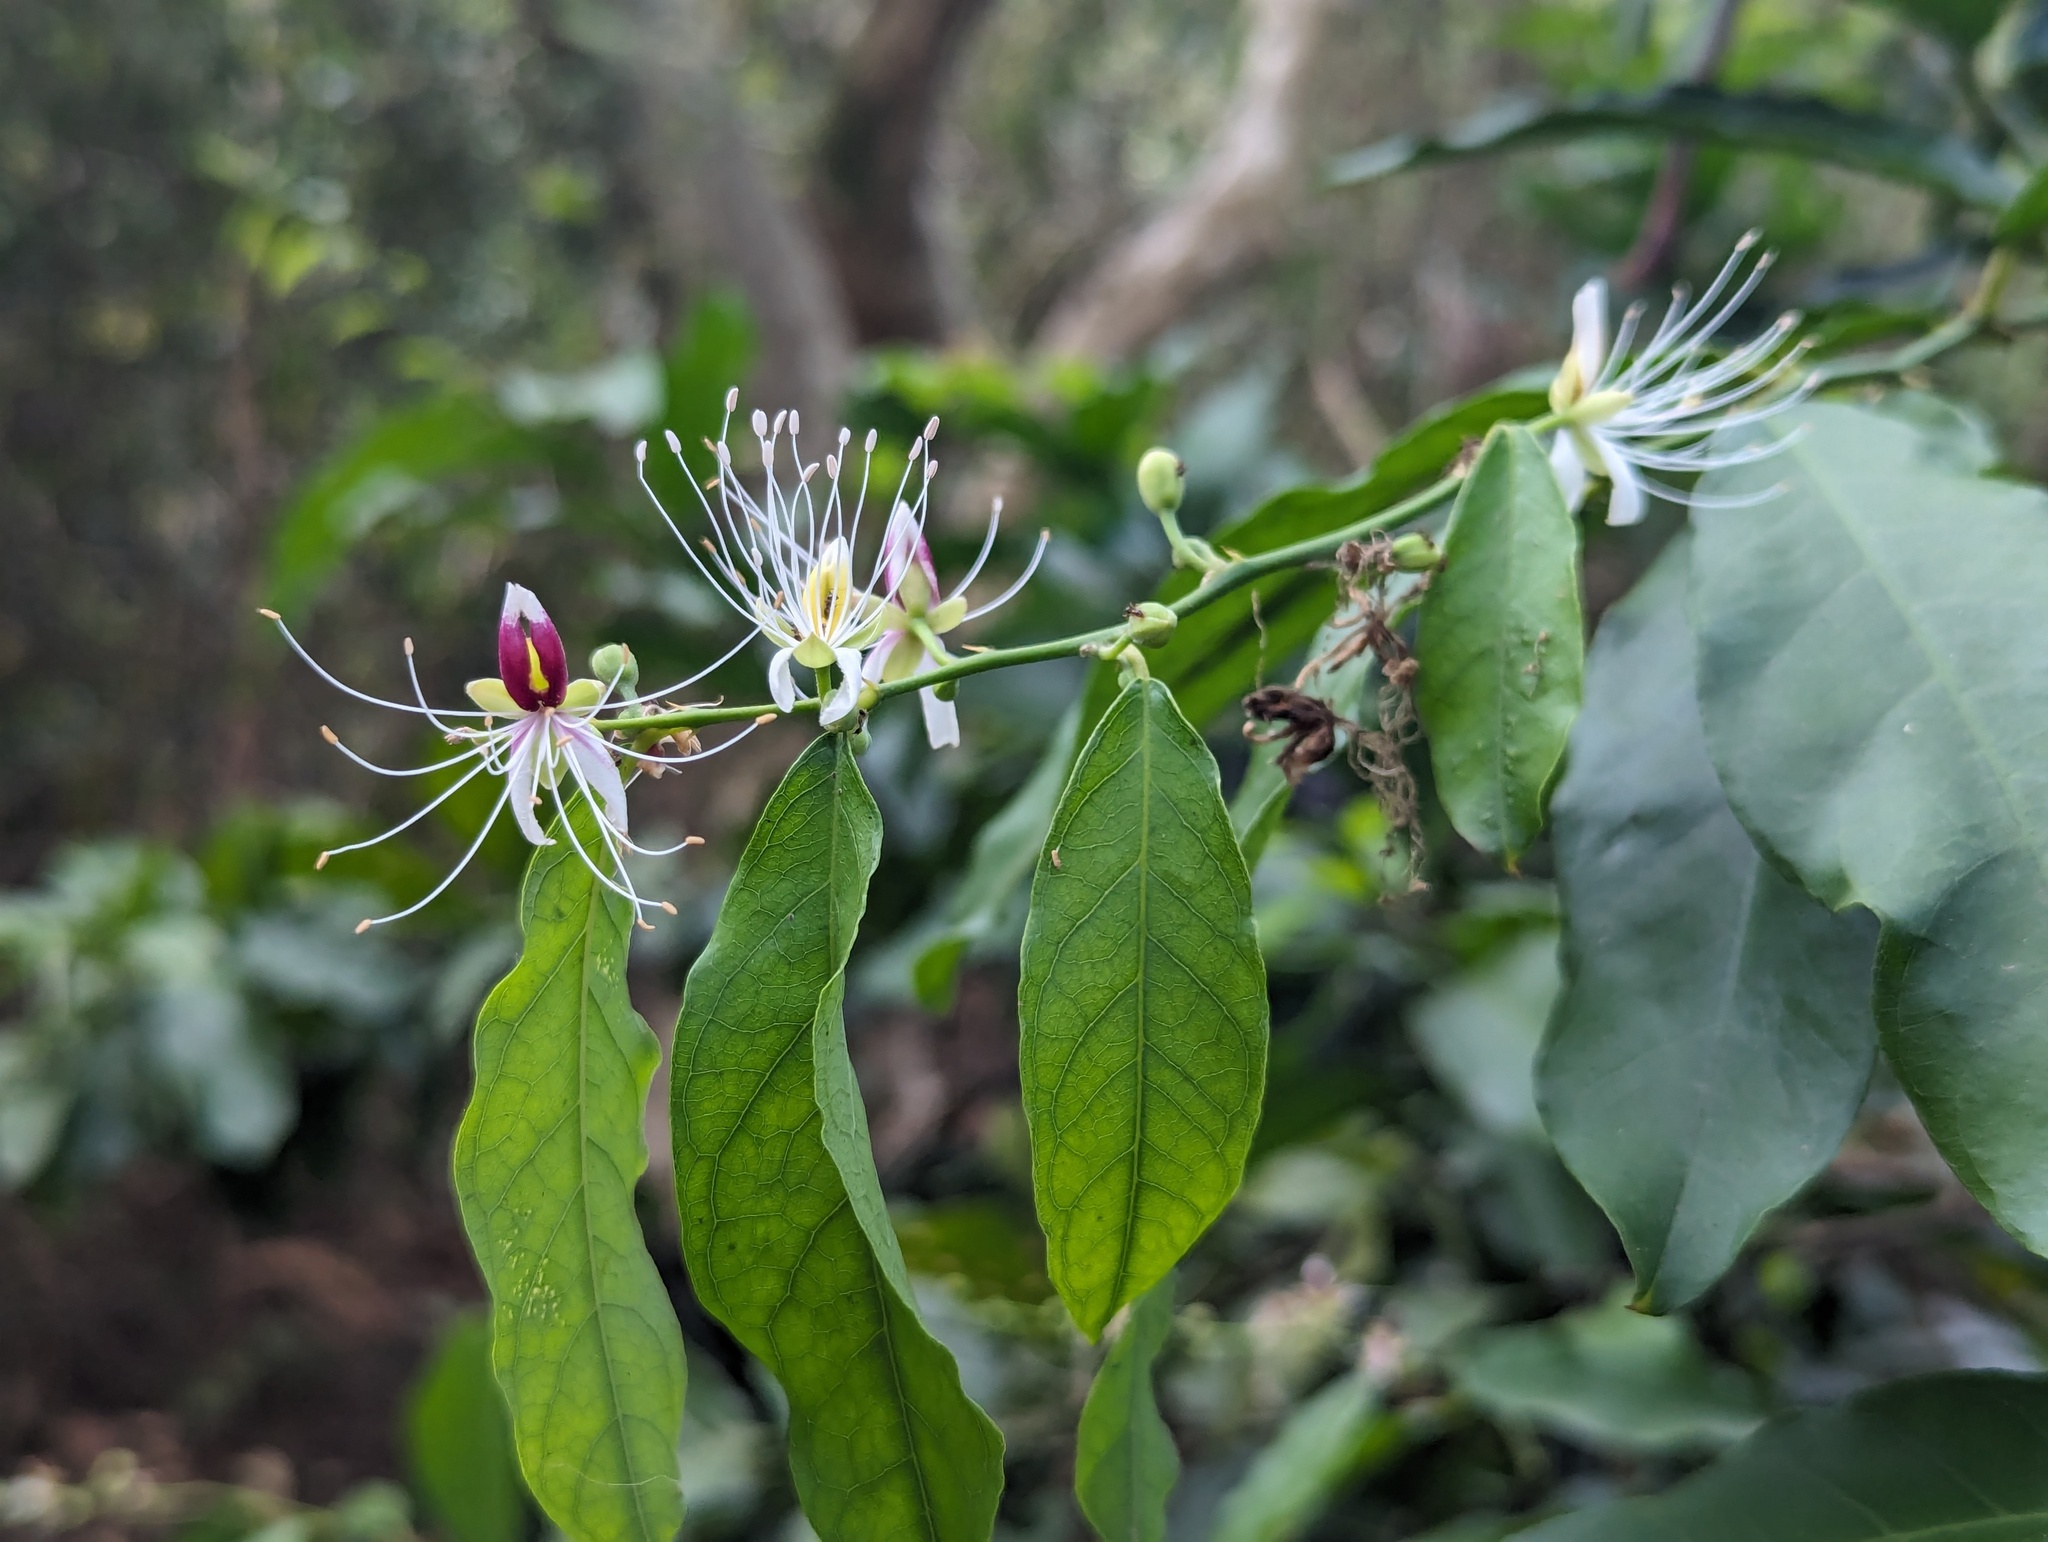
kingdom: Plantae
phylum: Tracheophyta
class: Magnoliopsida
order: Brassicales
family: Capparaceae
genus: Capparis
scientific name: Capparis henryi
